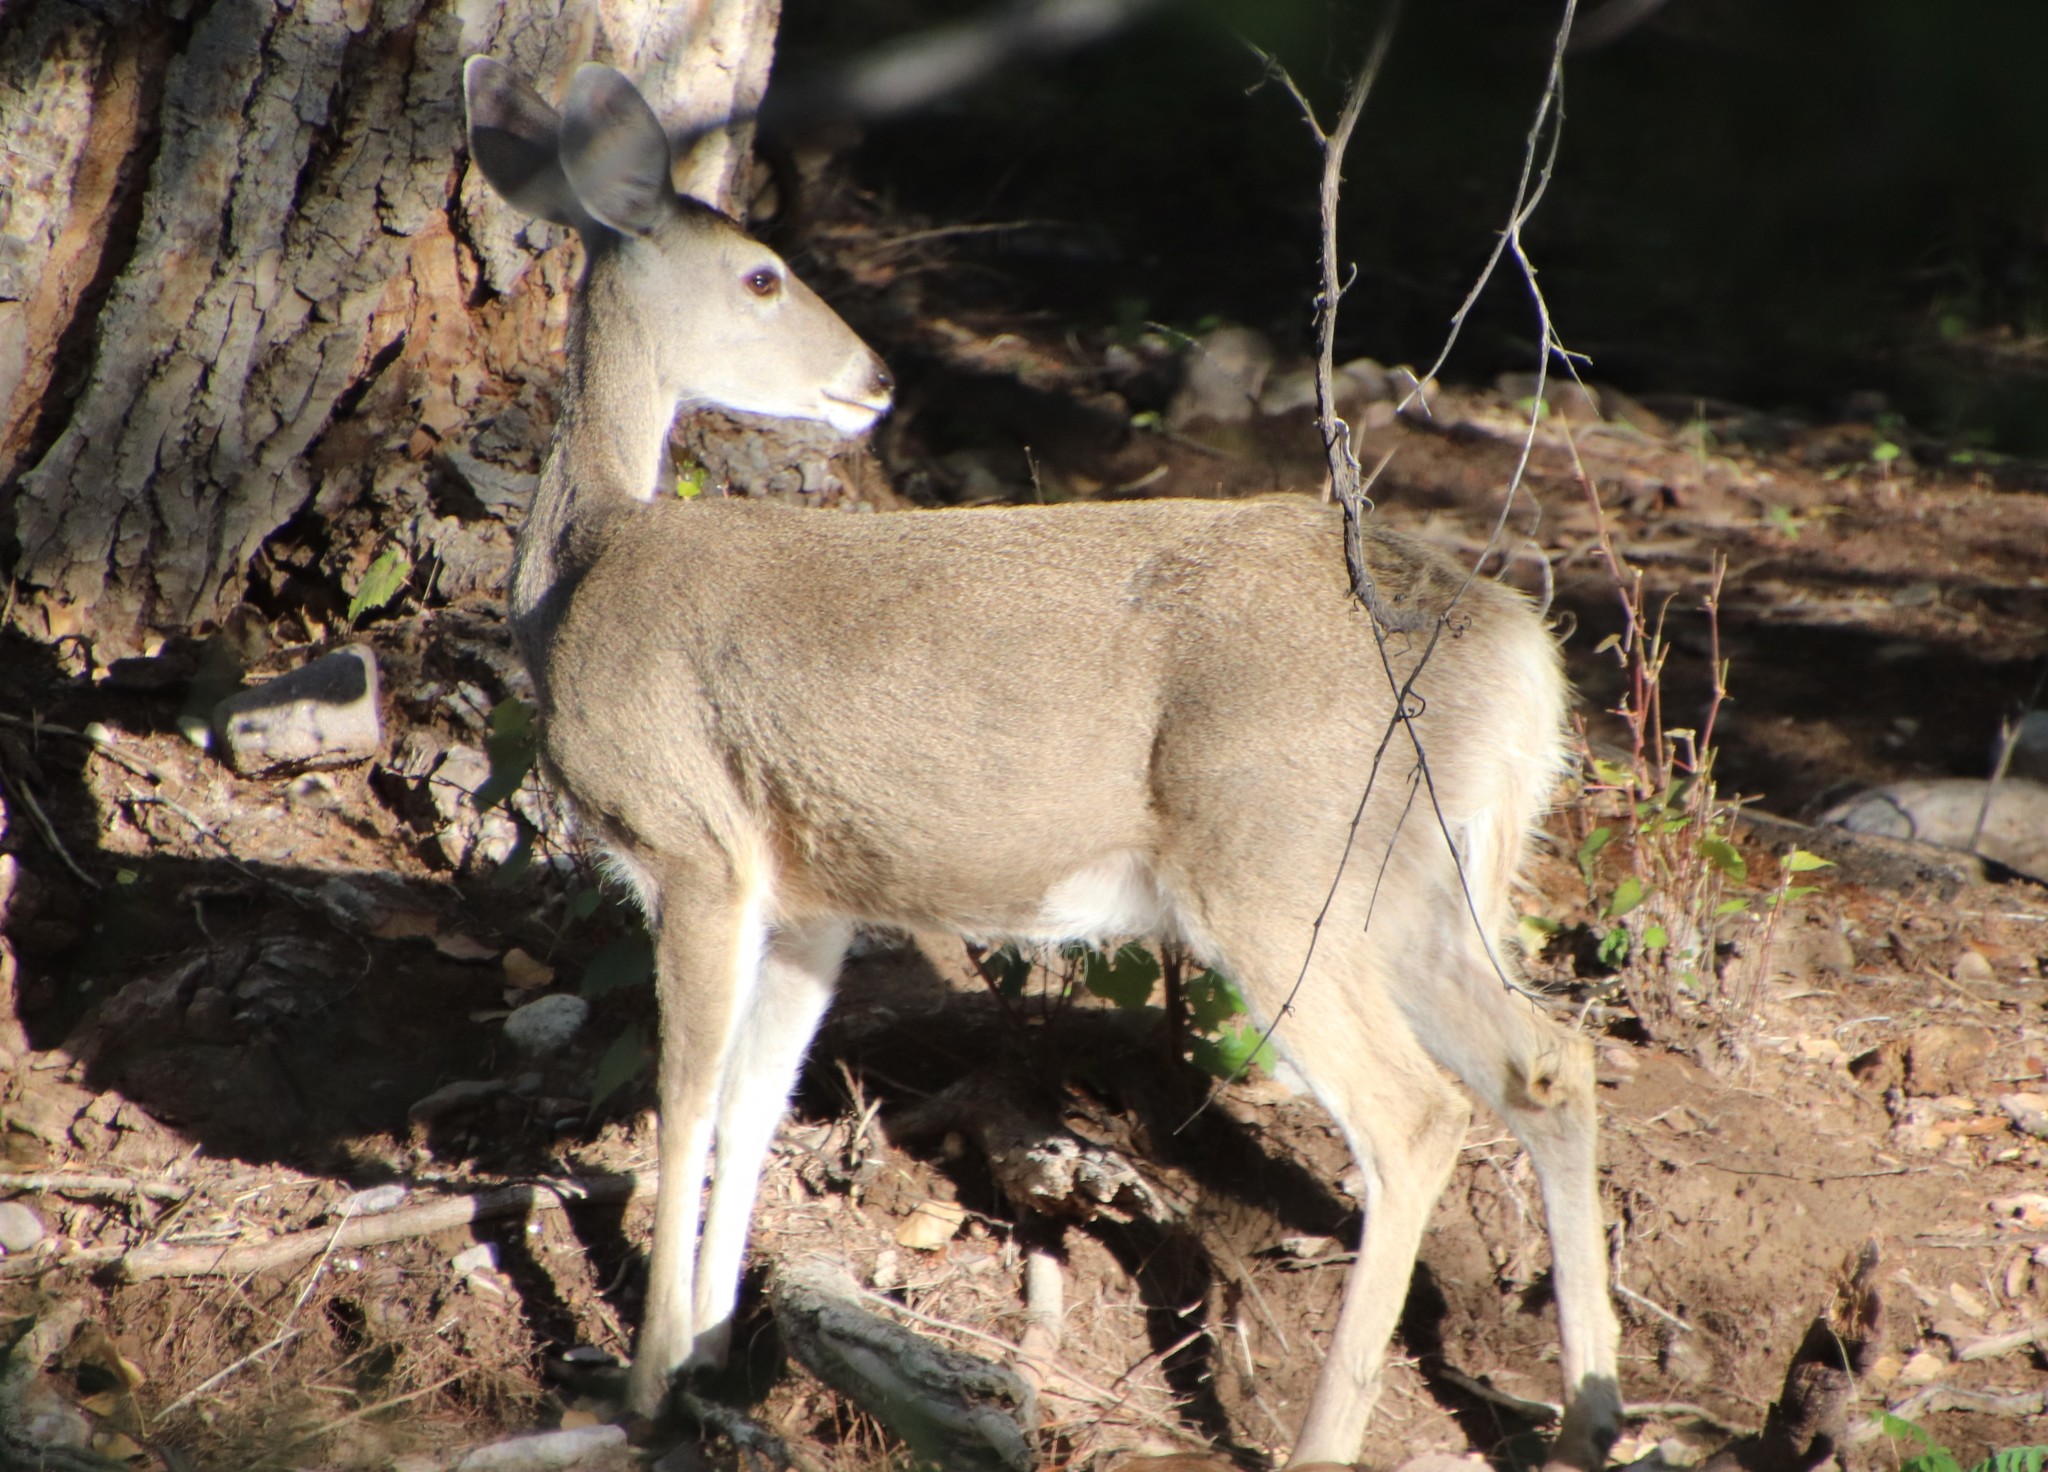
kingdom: Animalia
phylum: Chordata
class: Mammalia
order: Artiodactyla
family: Cervidae
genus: Odocoileus
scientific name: Odocoileus virginianus
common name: White-tailed deer
